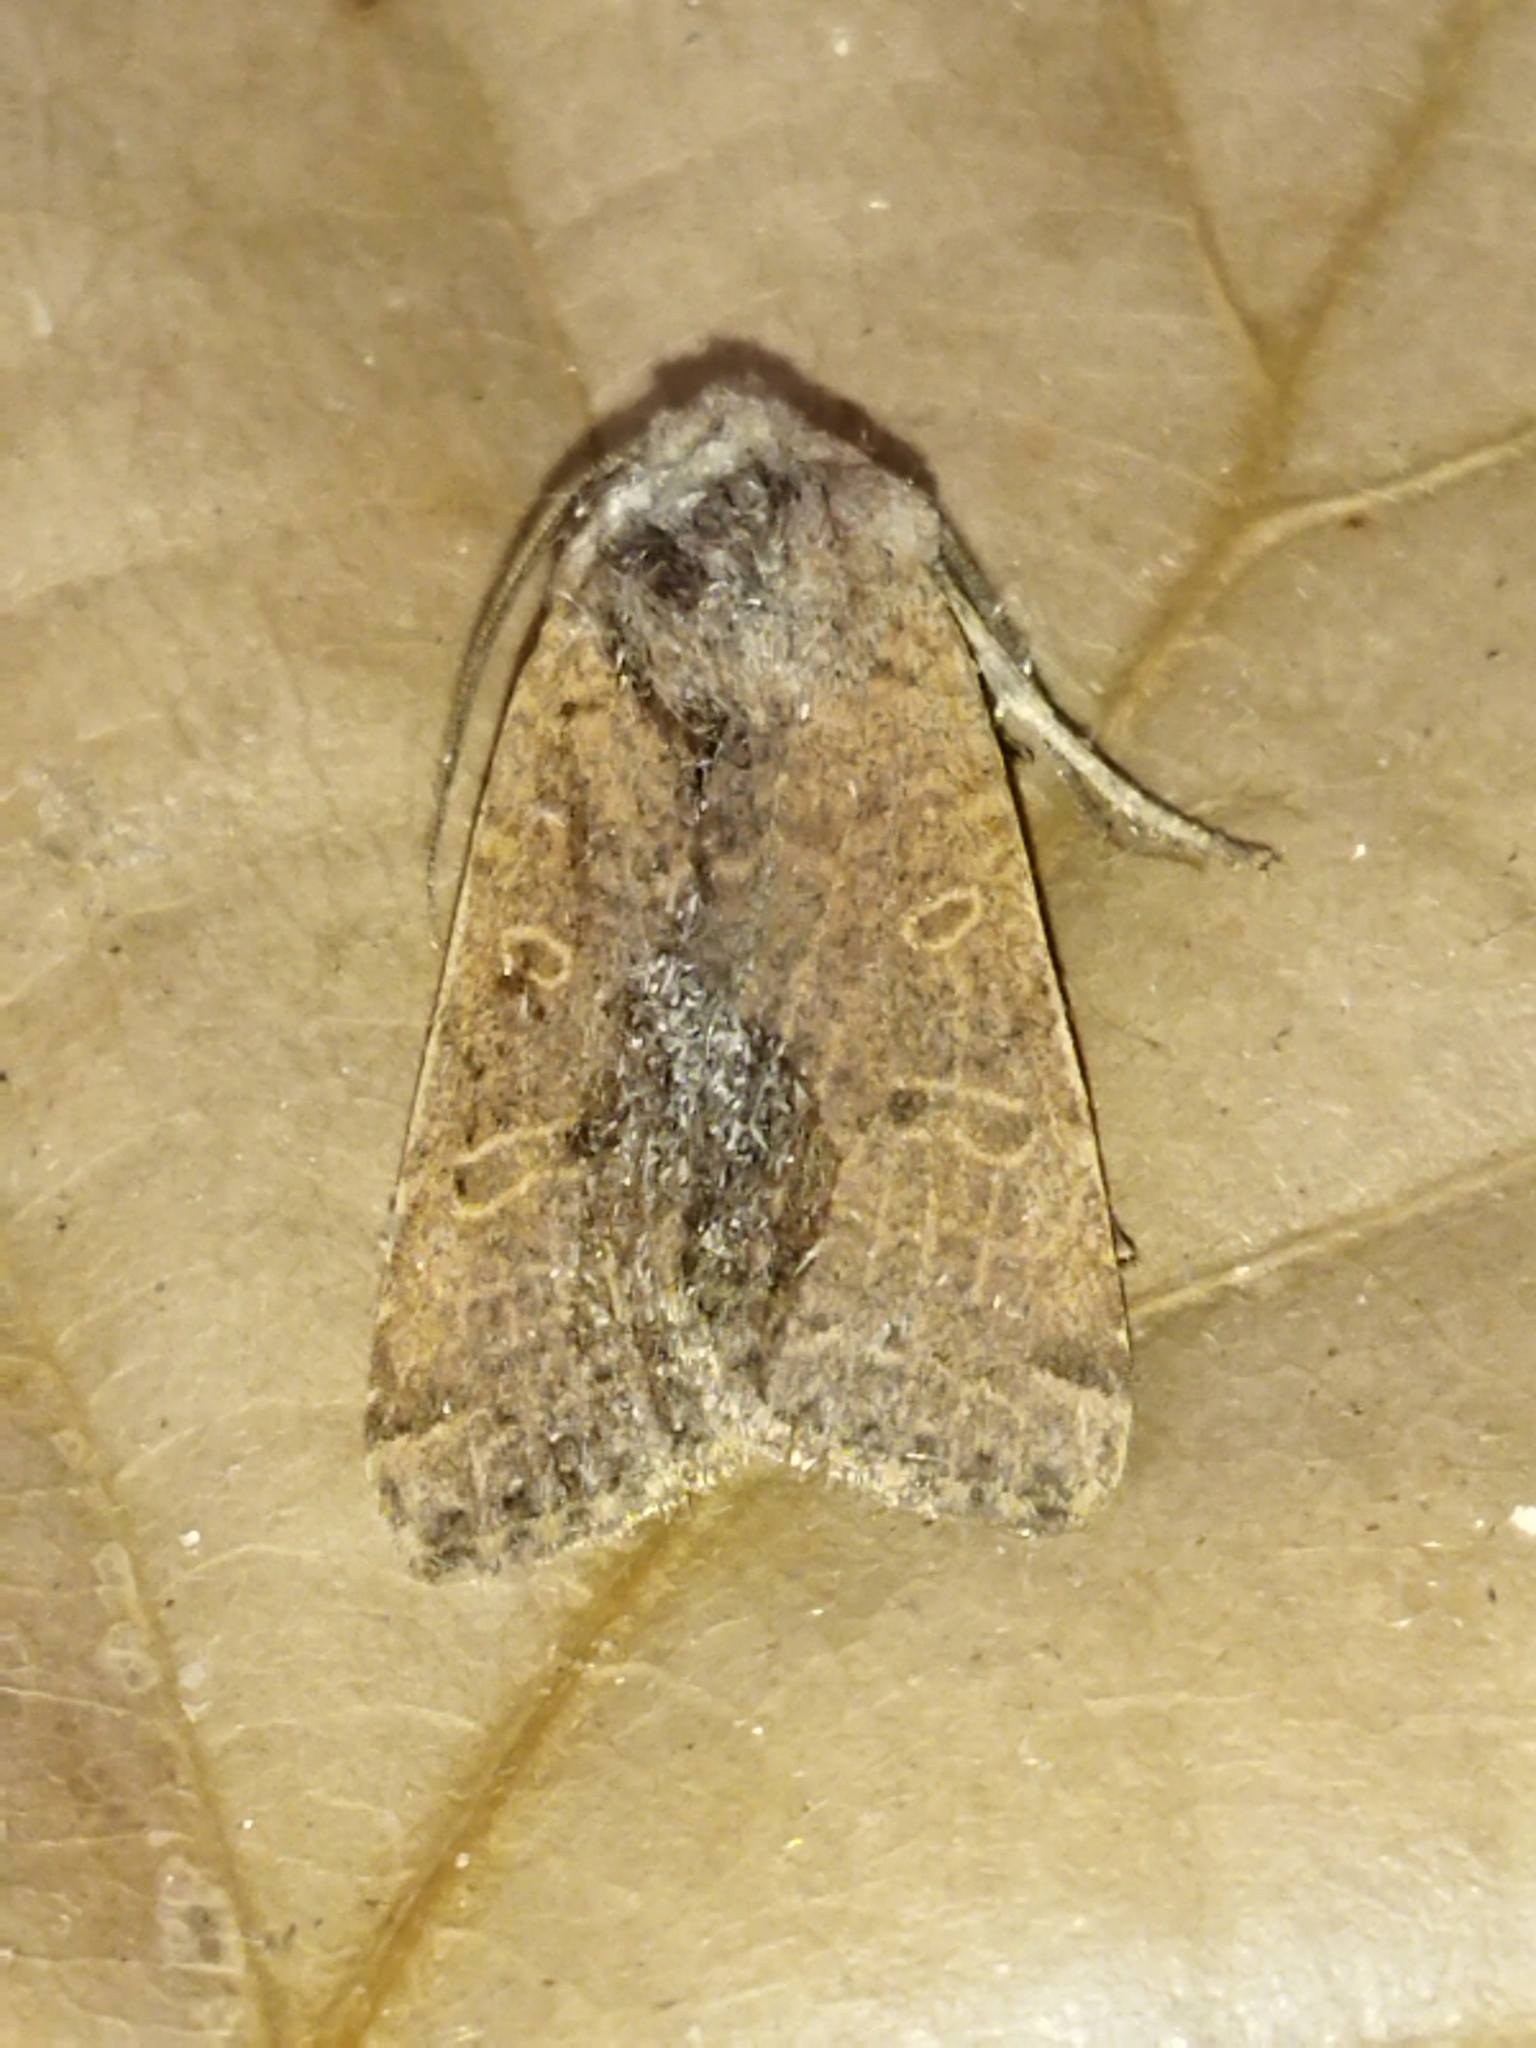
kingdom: Animalia
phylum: Arthropoda
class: Insecta
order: Lepidoptera
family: Noctuidae
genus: Agrochola
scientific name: Agrochola lychnidis
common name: Beaded chestnut
